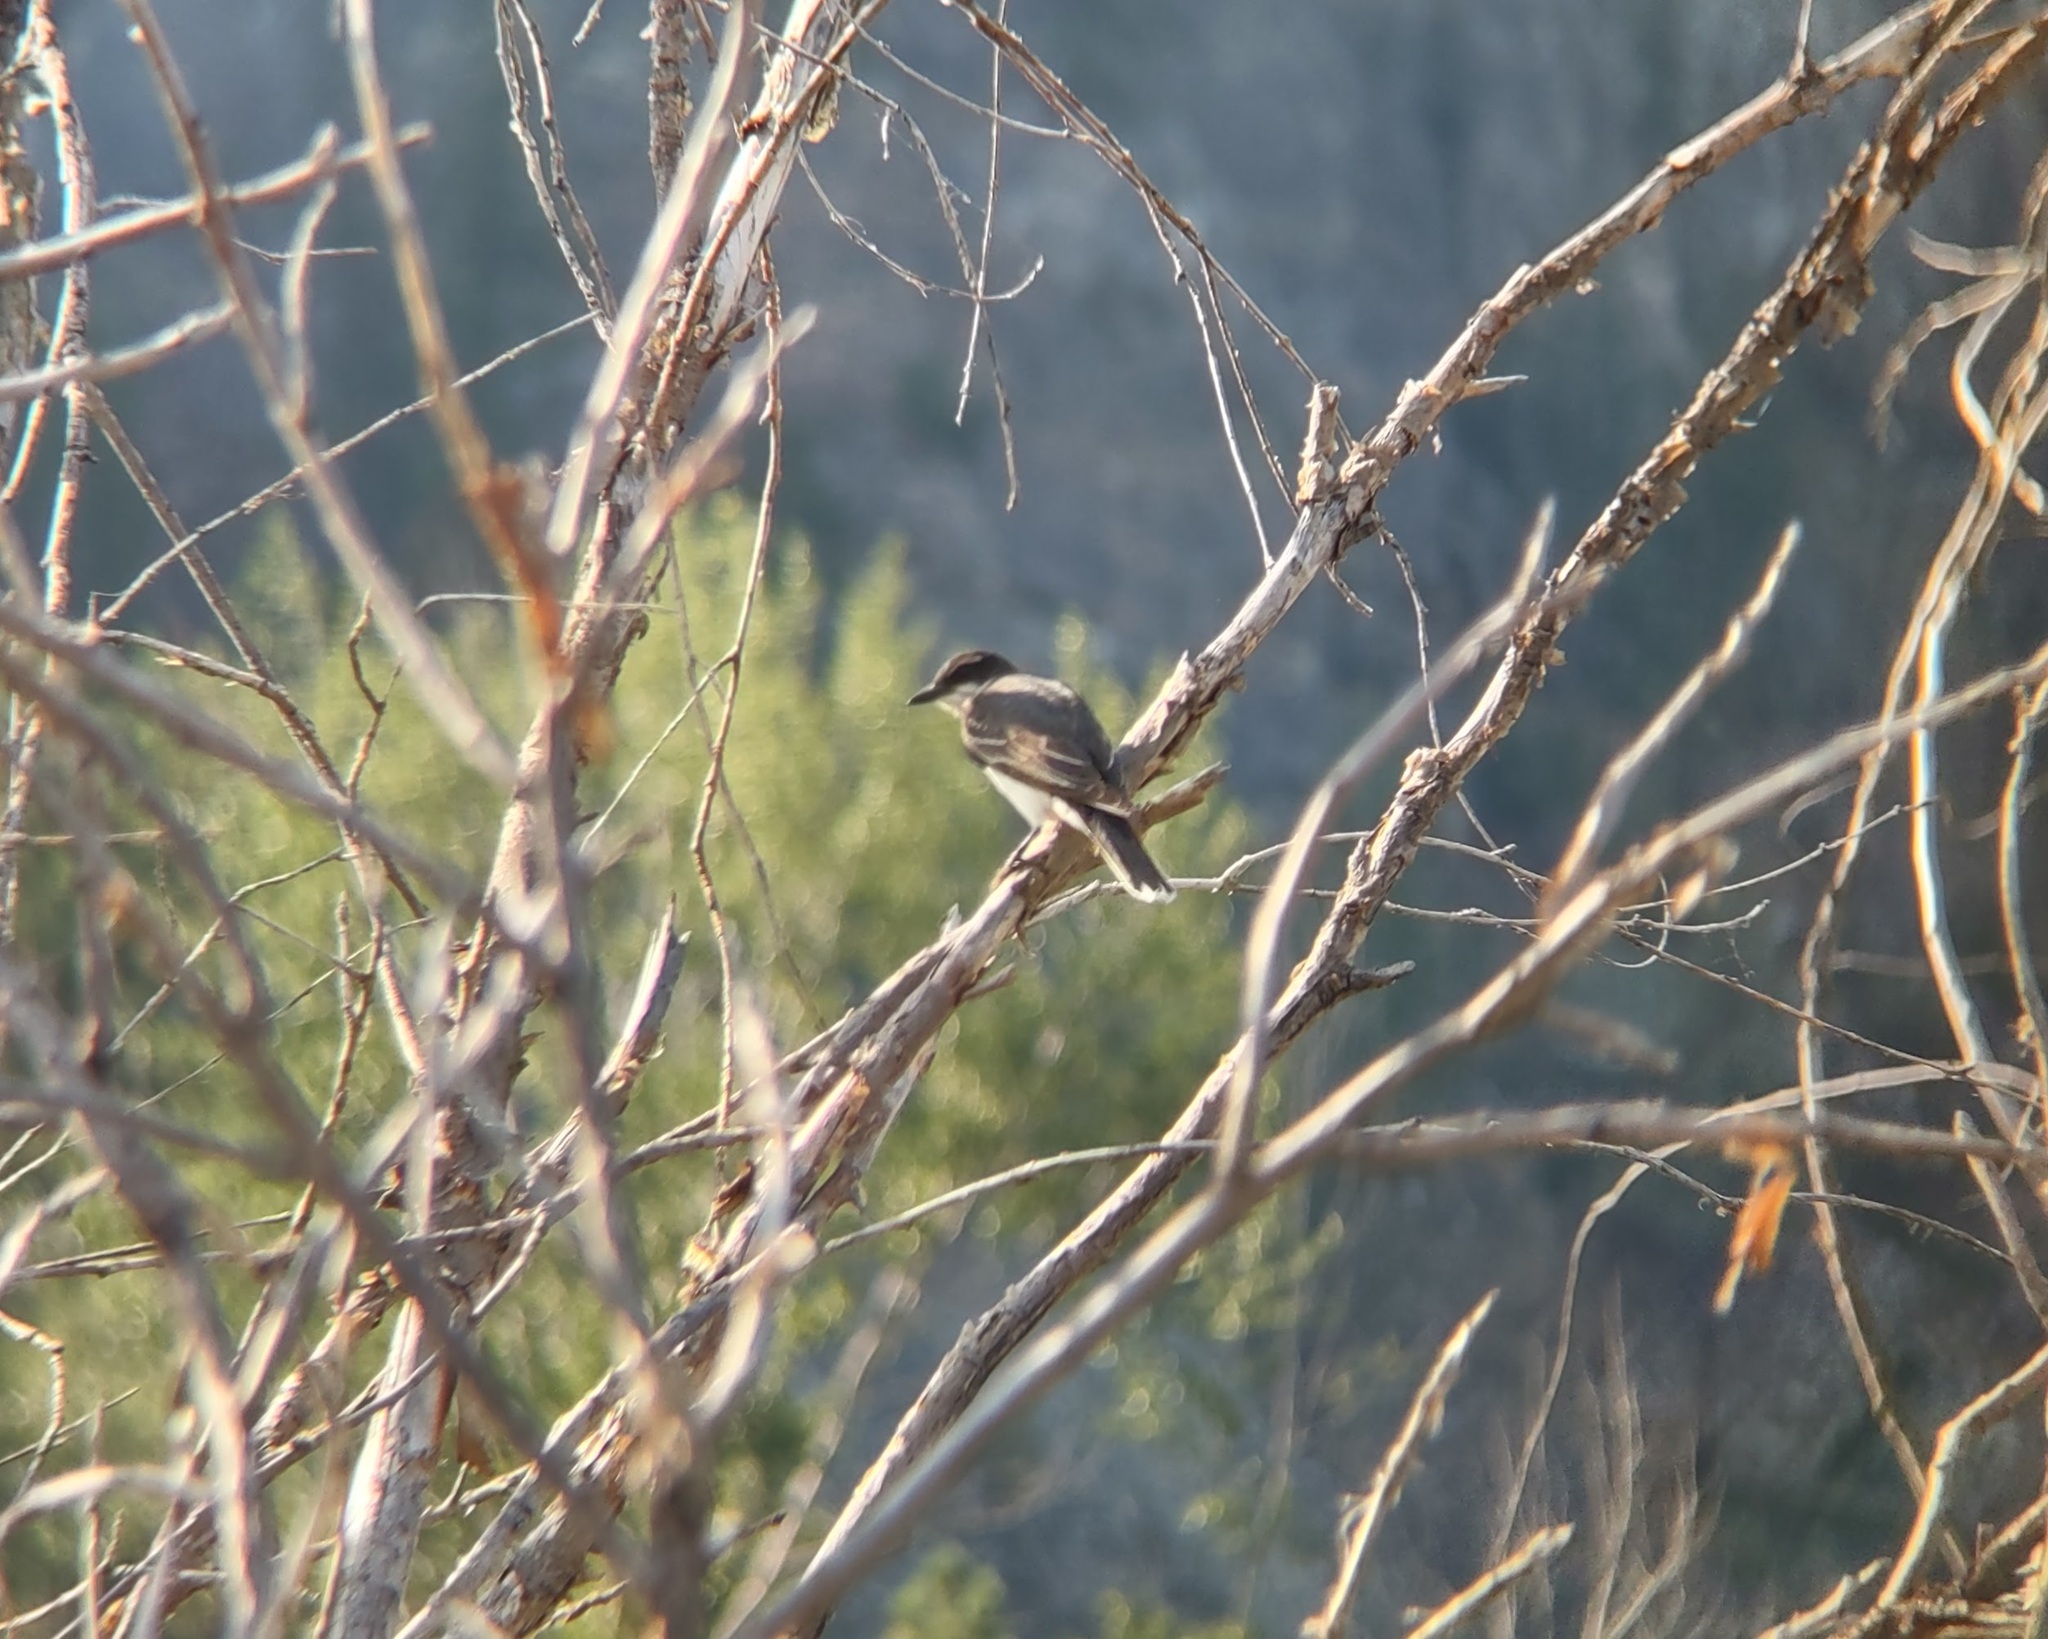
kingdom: Animalia
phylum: Chordata
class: Aves
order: Passeriformes
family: Tyrannidae
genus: Tyrannus
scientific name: Tyrannus tyrannus
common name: Eastern kingbird
